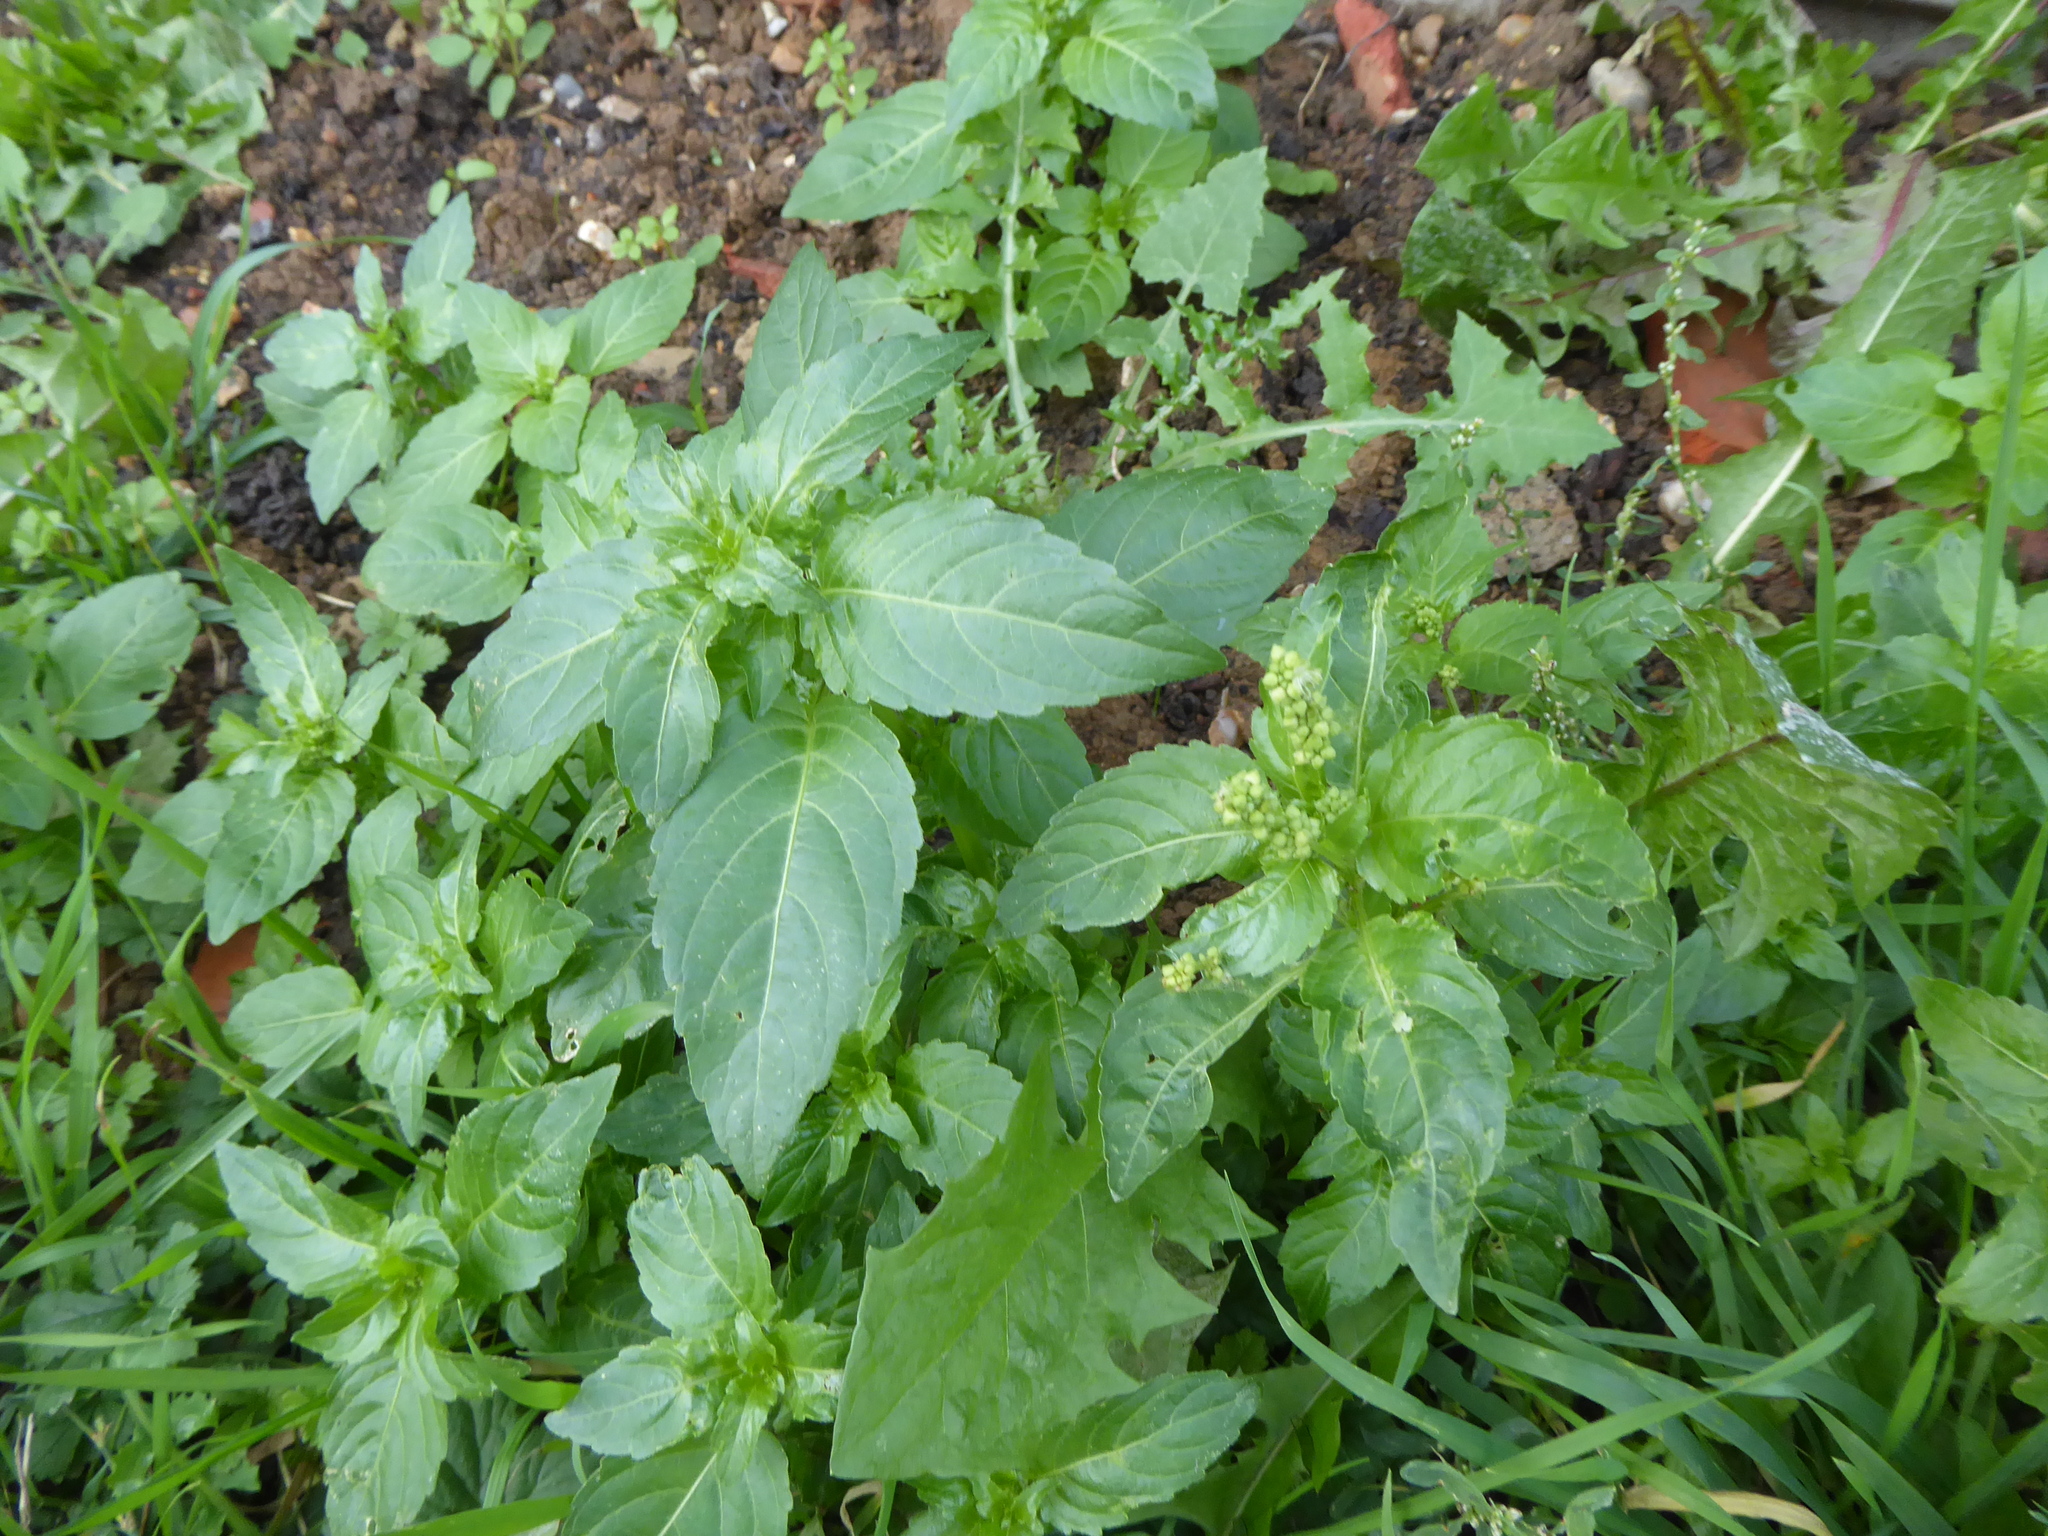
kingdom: Plantae
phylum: Tracheophyta
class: Magnoliopsida
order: Malpighiales
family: Euphorbiaceae
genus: Mercurialis
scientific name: Mercurialis annua
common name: Annual mercury
